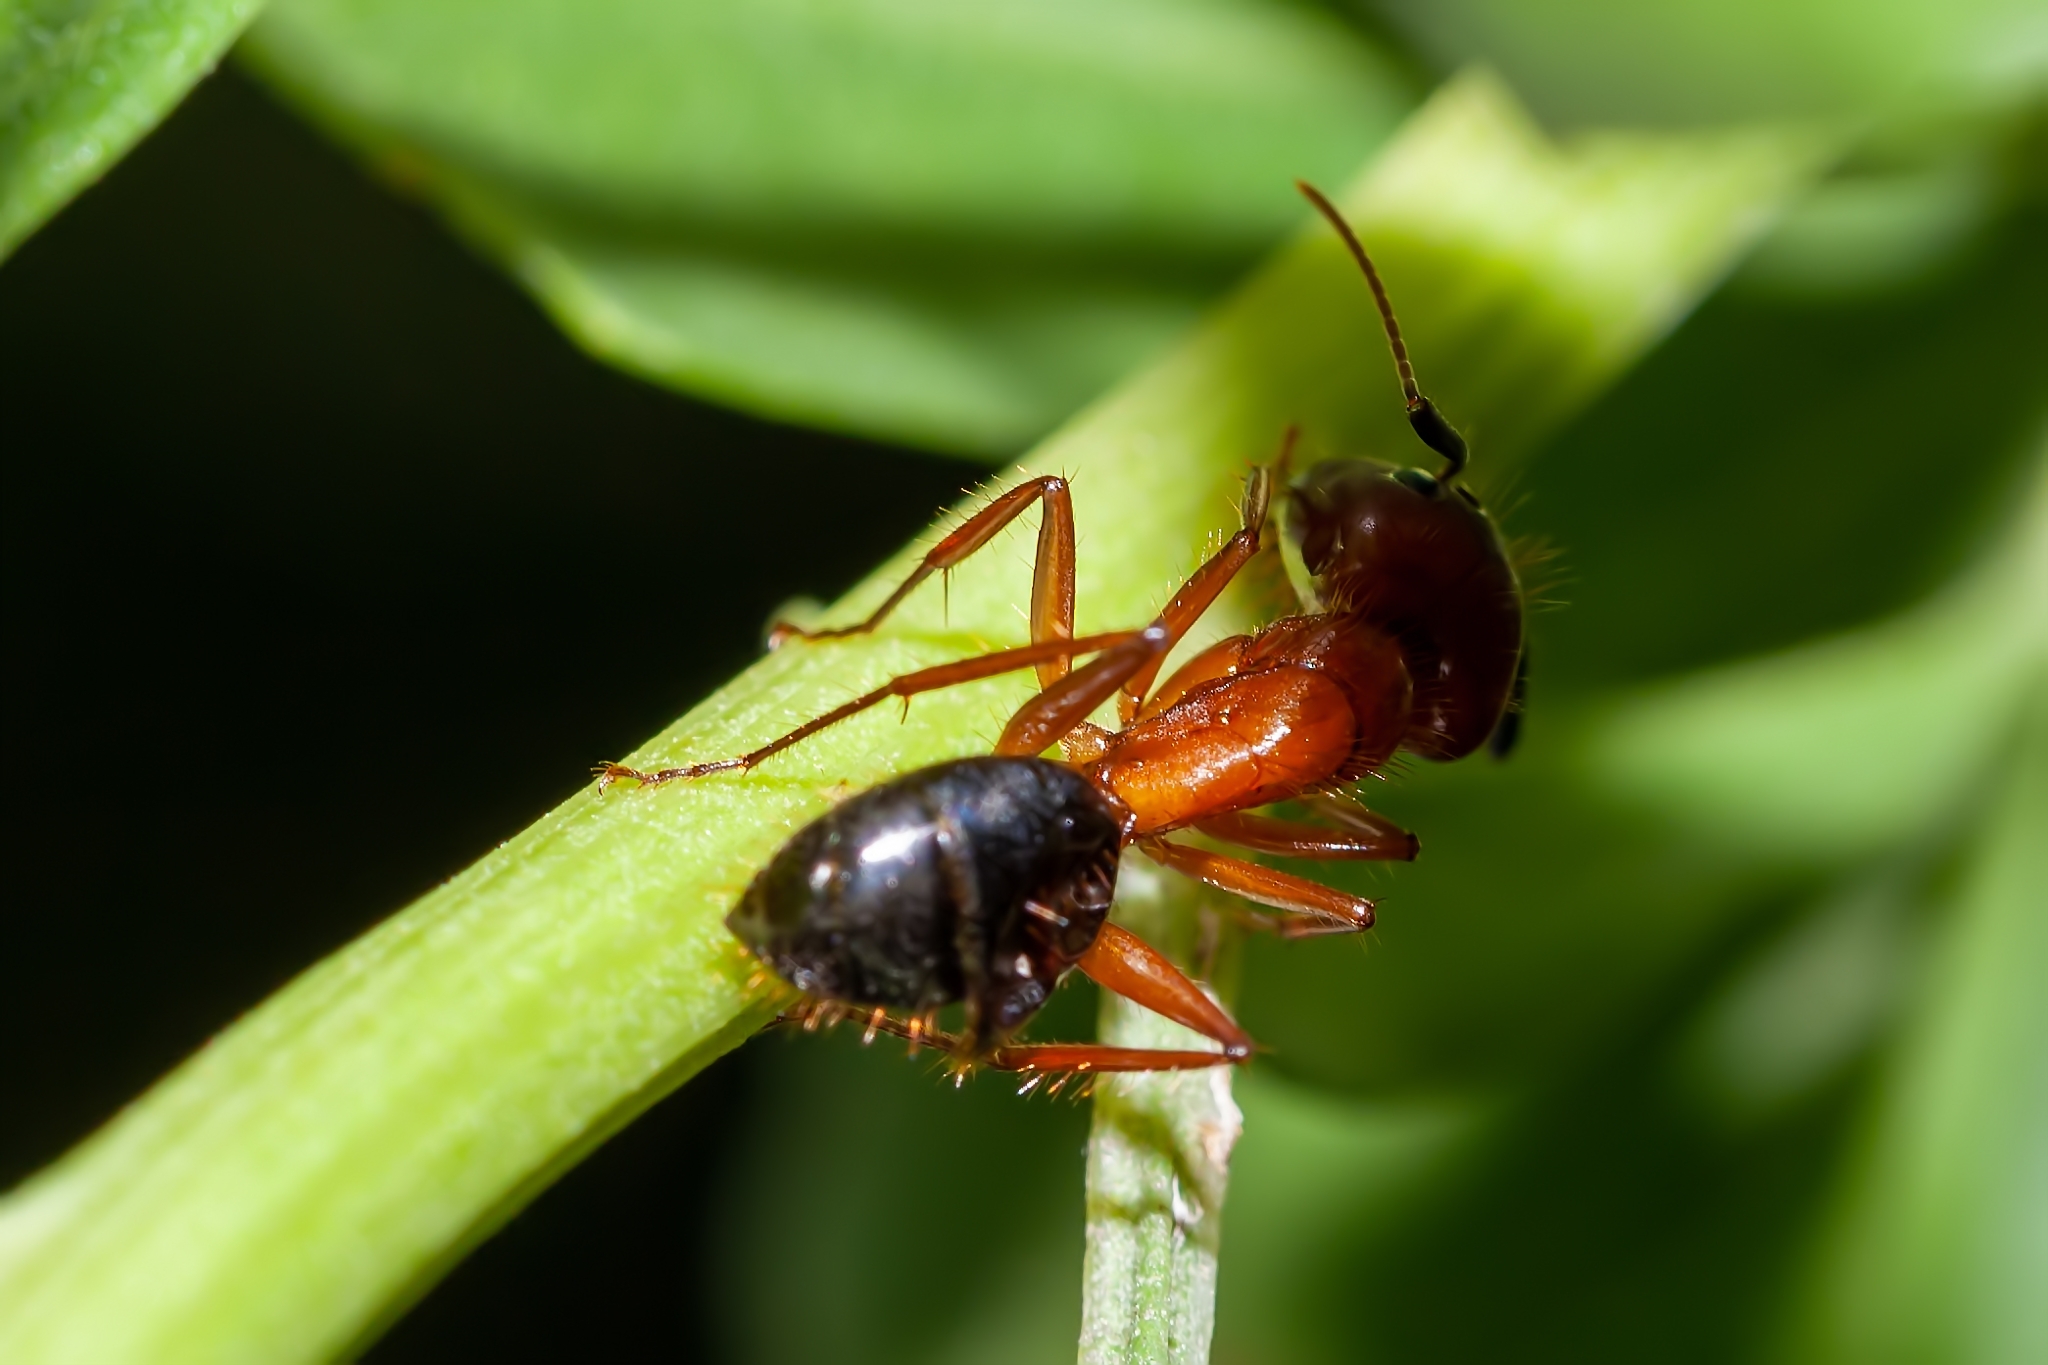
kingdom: Animalia
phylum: Arthropoda
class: Insecta
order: Hymenoptera
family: Formicidae
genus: Camponotus
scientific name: Camponotus floridanus
